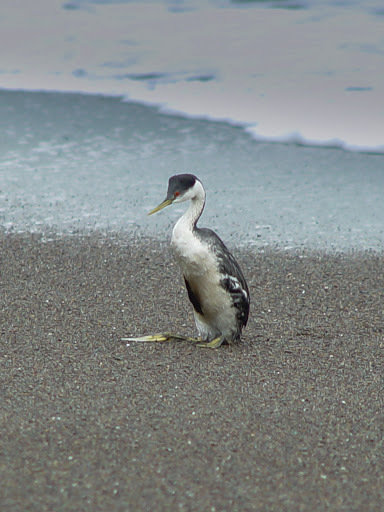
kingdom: Animalia
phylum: Chordata
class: Aves
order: Podicipediformes
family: Podicipedidae
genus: Aechmophorus
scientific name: Aechmophorus occidentalis
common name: Western grebe
